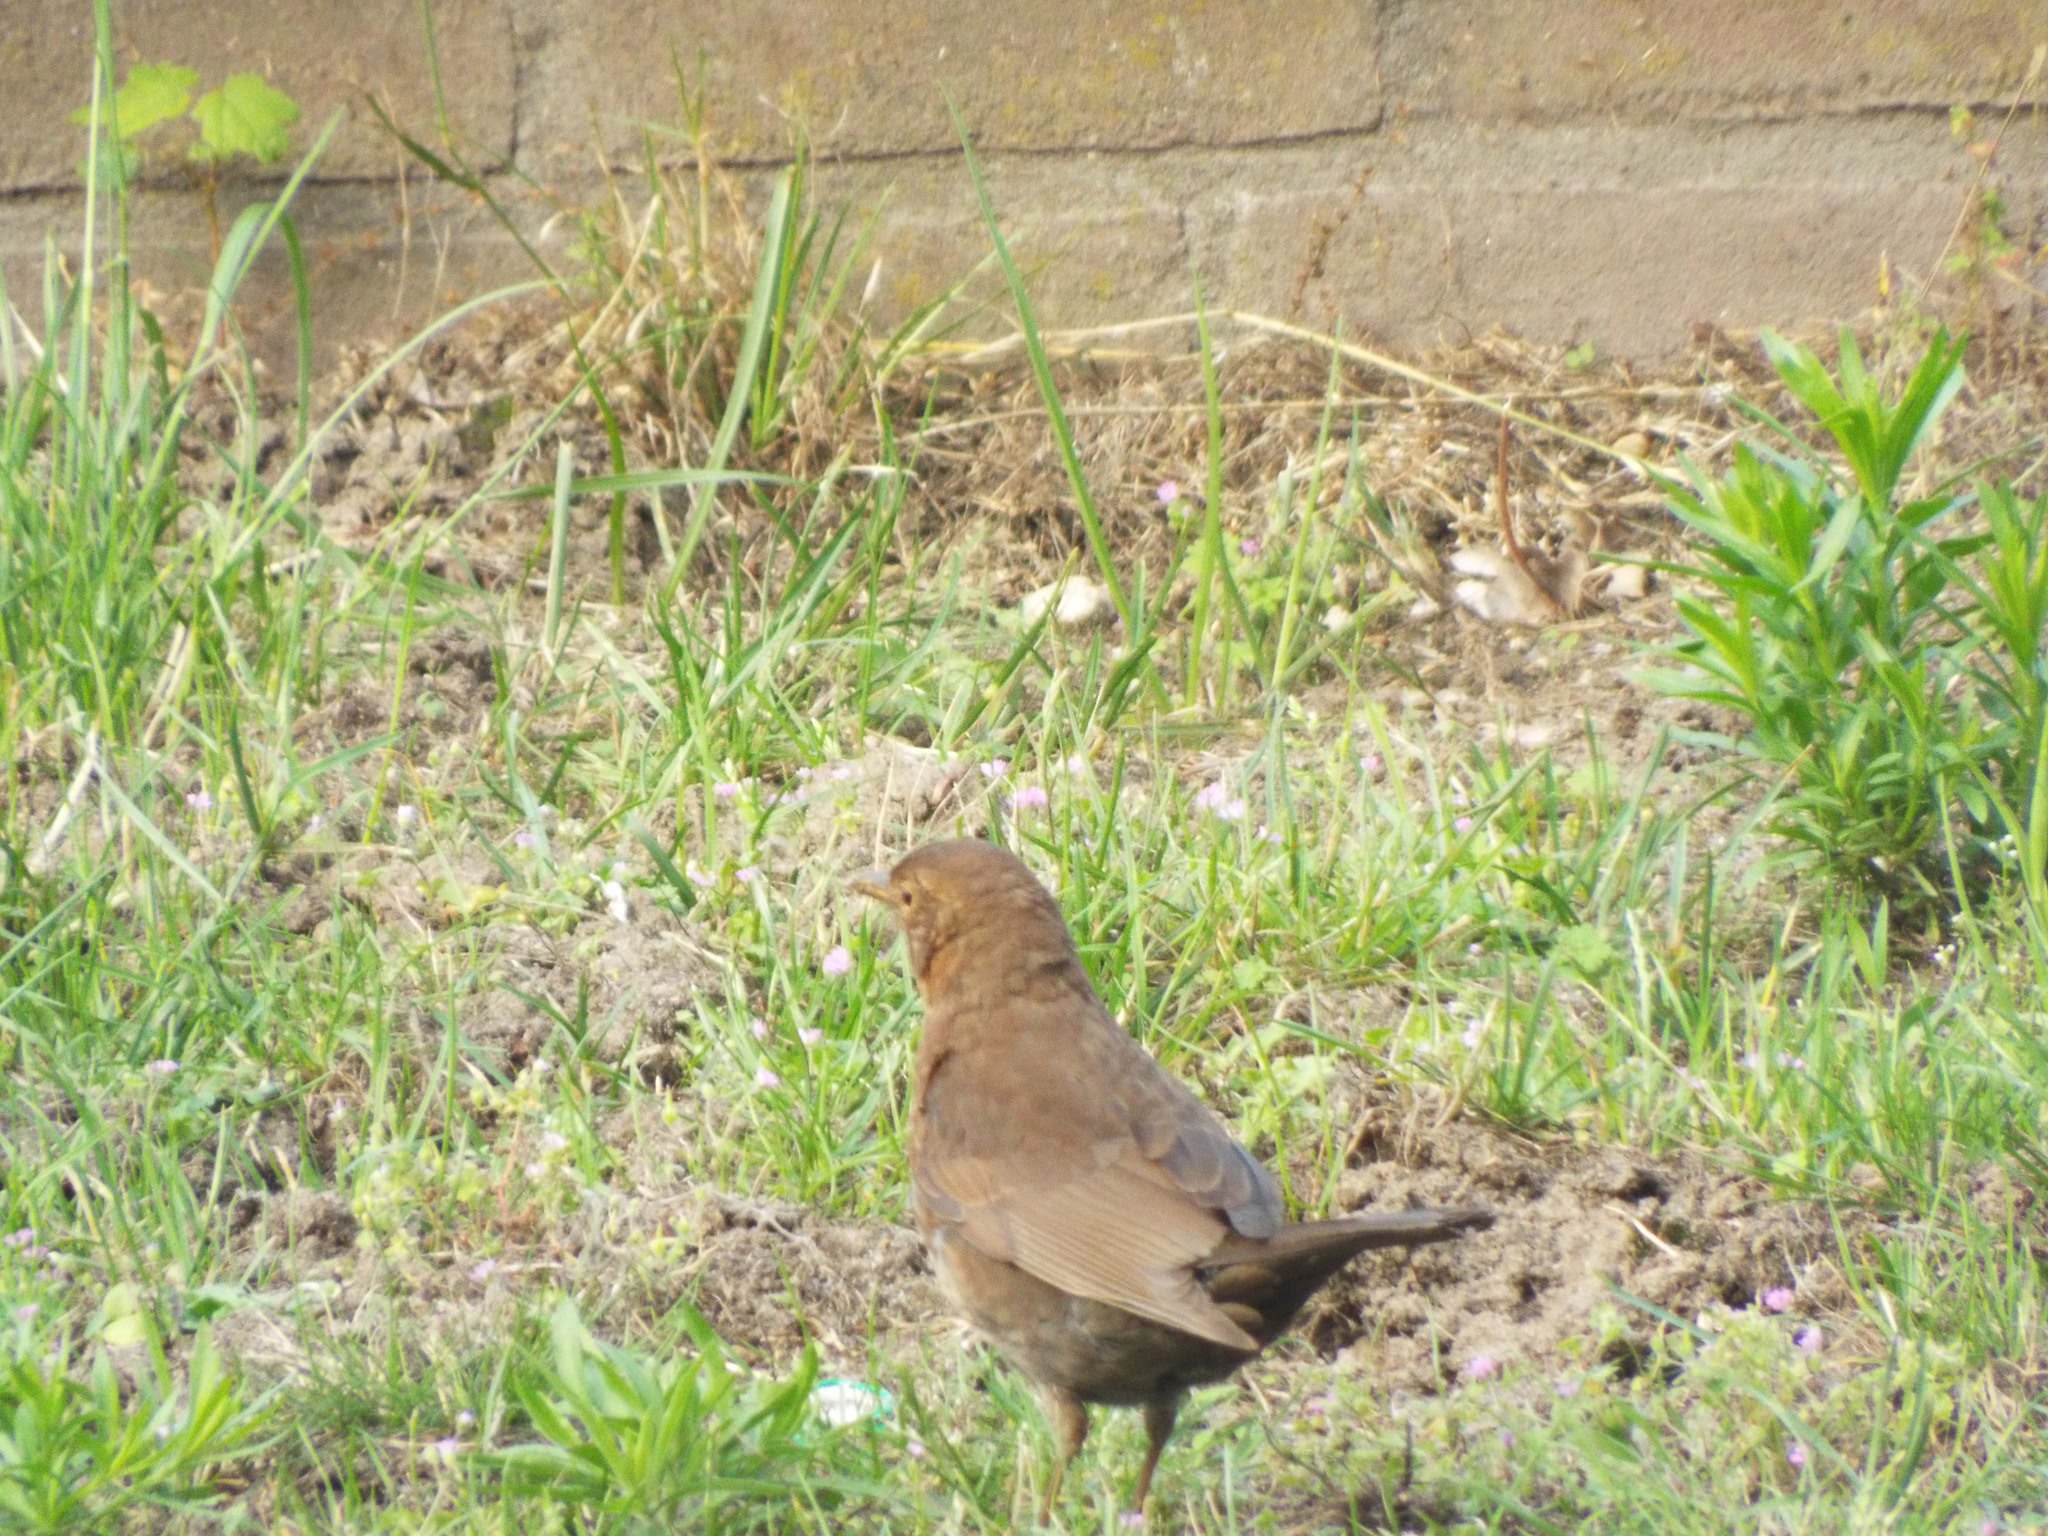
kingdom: Animalia
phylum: Chordata
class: Aves
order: Passeriformes
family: Turdidae
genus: Turdus
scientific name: Turdus merula
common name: Common blackbird
